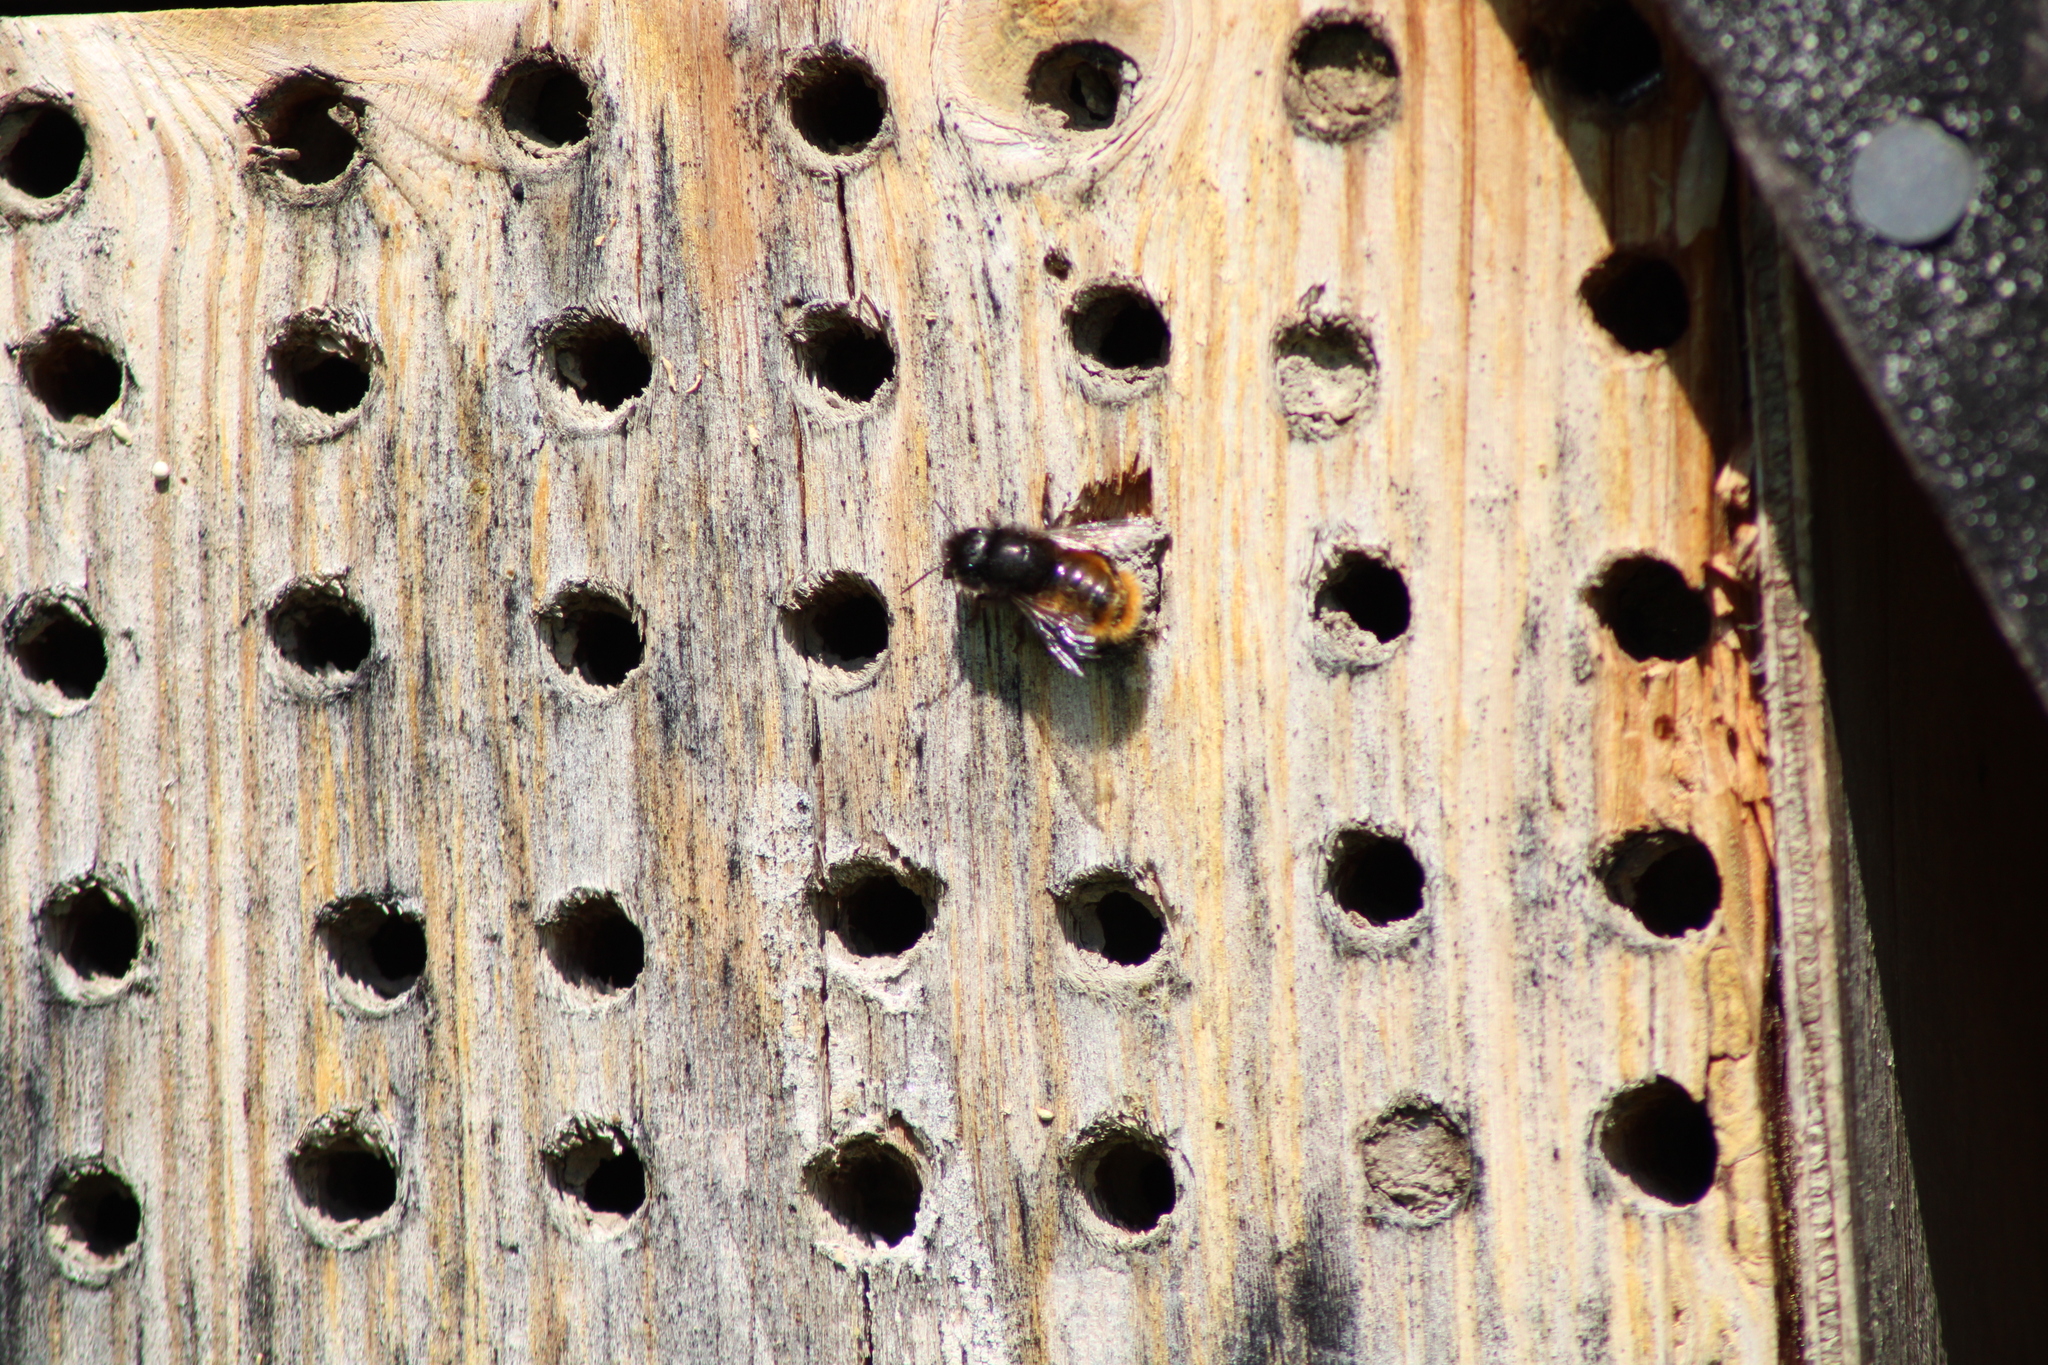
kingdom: Animalia
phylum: Arthropoda
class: Insecta
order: Hymenoptera
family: Megachilidae
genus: Osmia
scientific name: Osmia cornuta
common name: Mason bee
